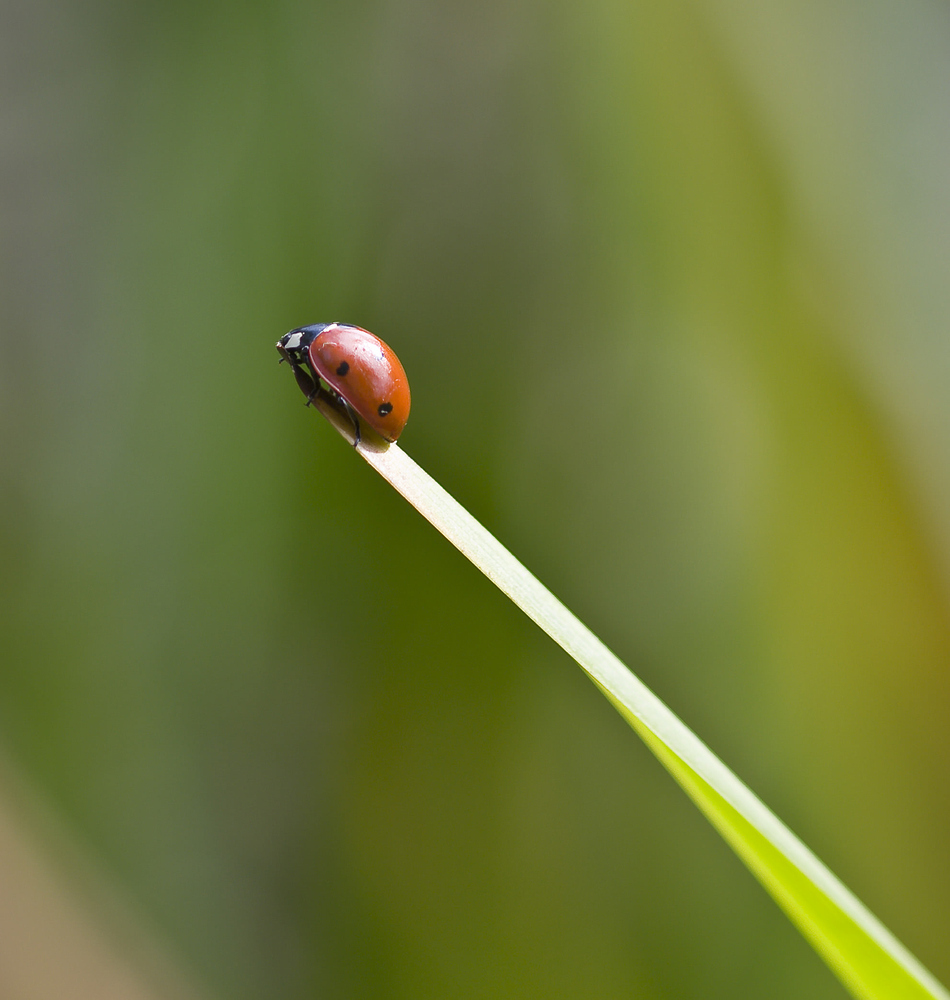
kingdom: Animalia
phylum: Arthropoda
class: Insecta
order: Coleoptera
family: Coccinellidae
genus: Coccinella
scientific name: Coccinella septempunctata
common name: Sevenspotted lady beetle
